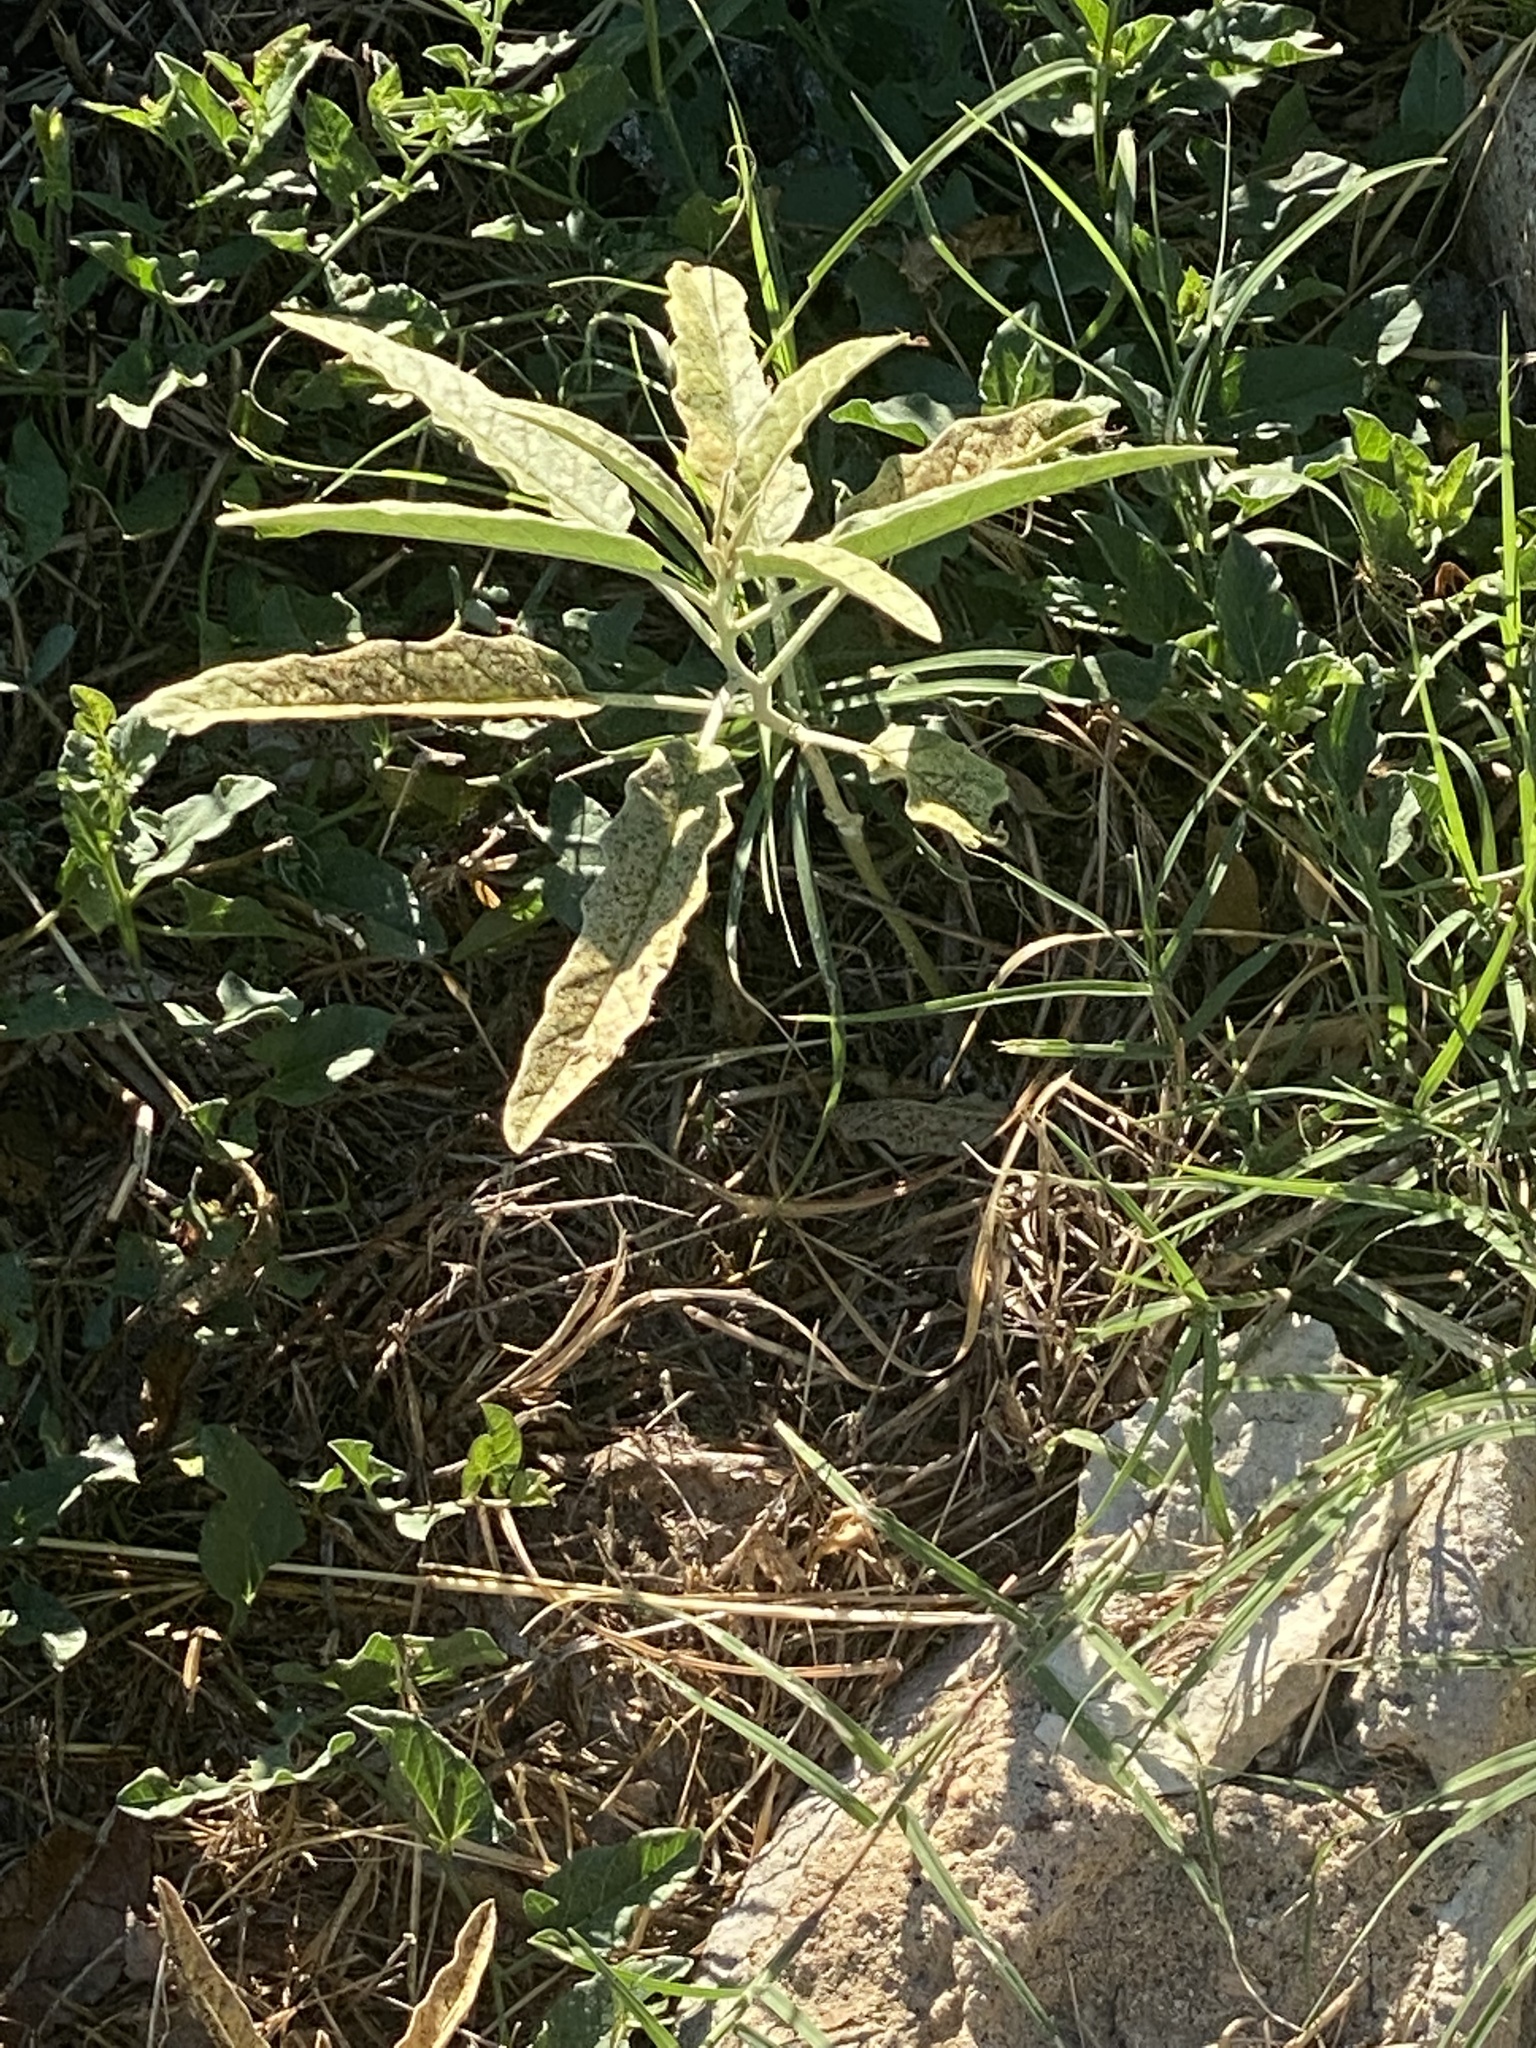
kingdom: Plantae
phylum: Tracheophyta
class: Magnoliopsida
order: Solanales
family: Solanaceae
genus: Solanum
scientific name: Solanum elaeagnifolium
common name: Silverleaf nightshade
